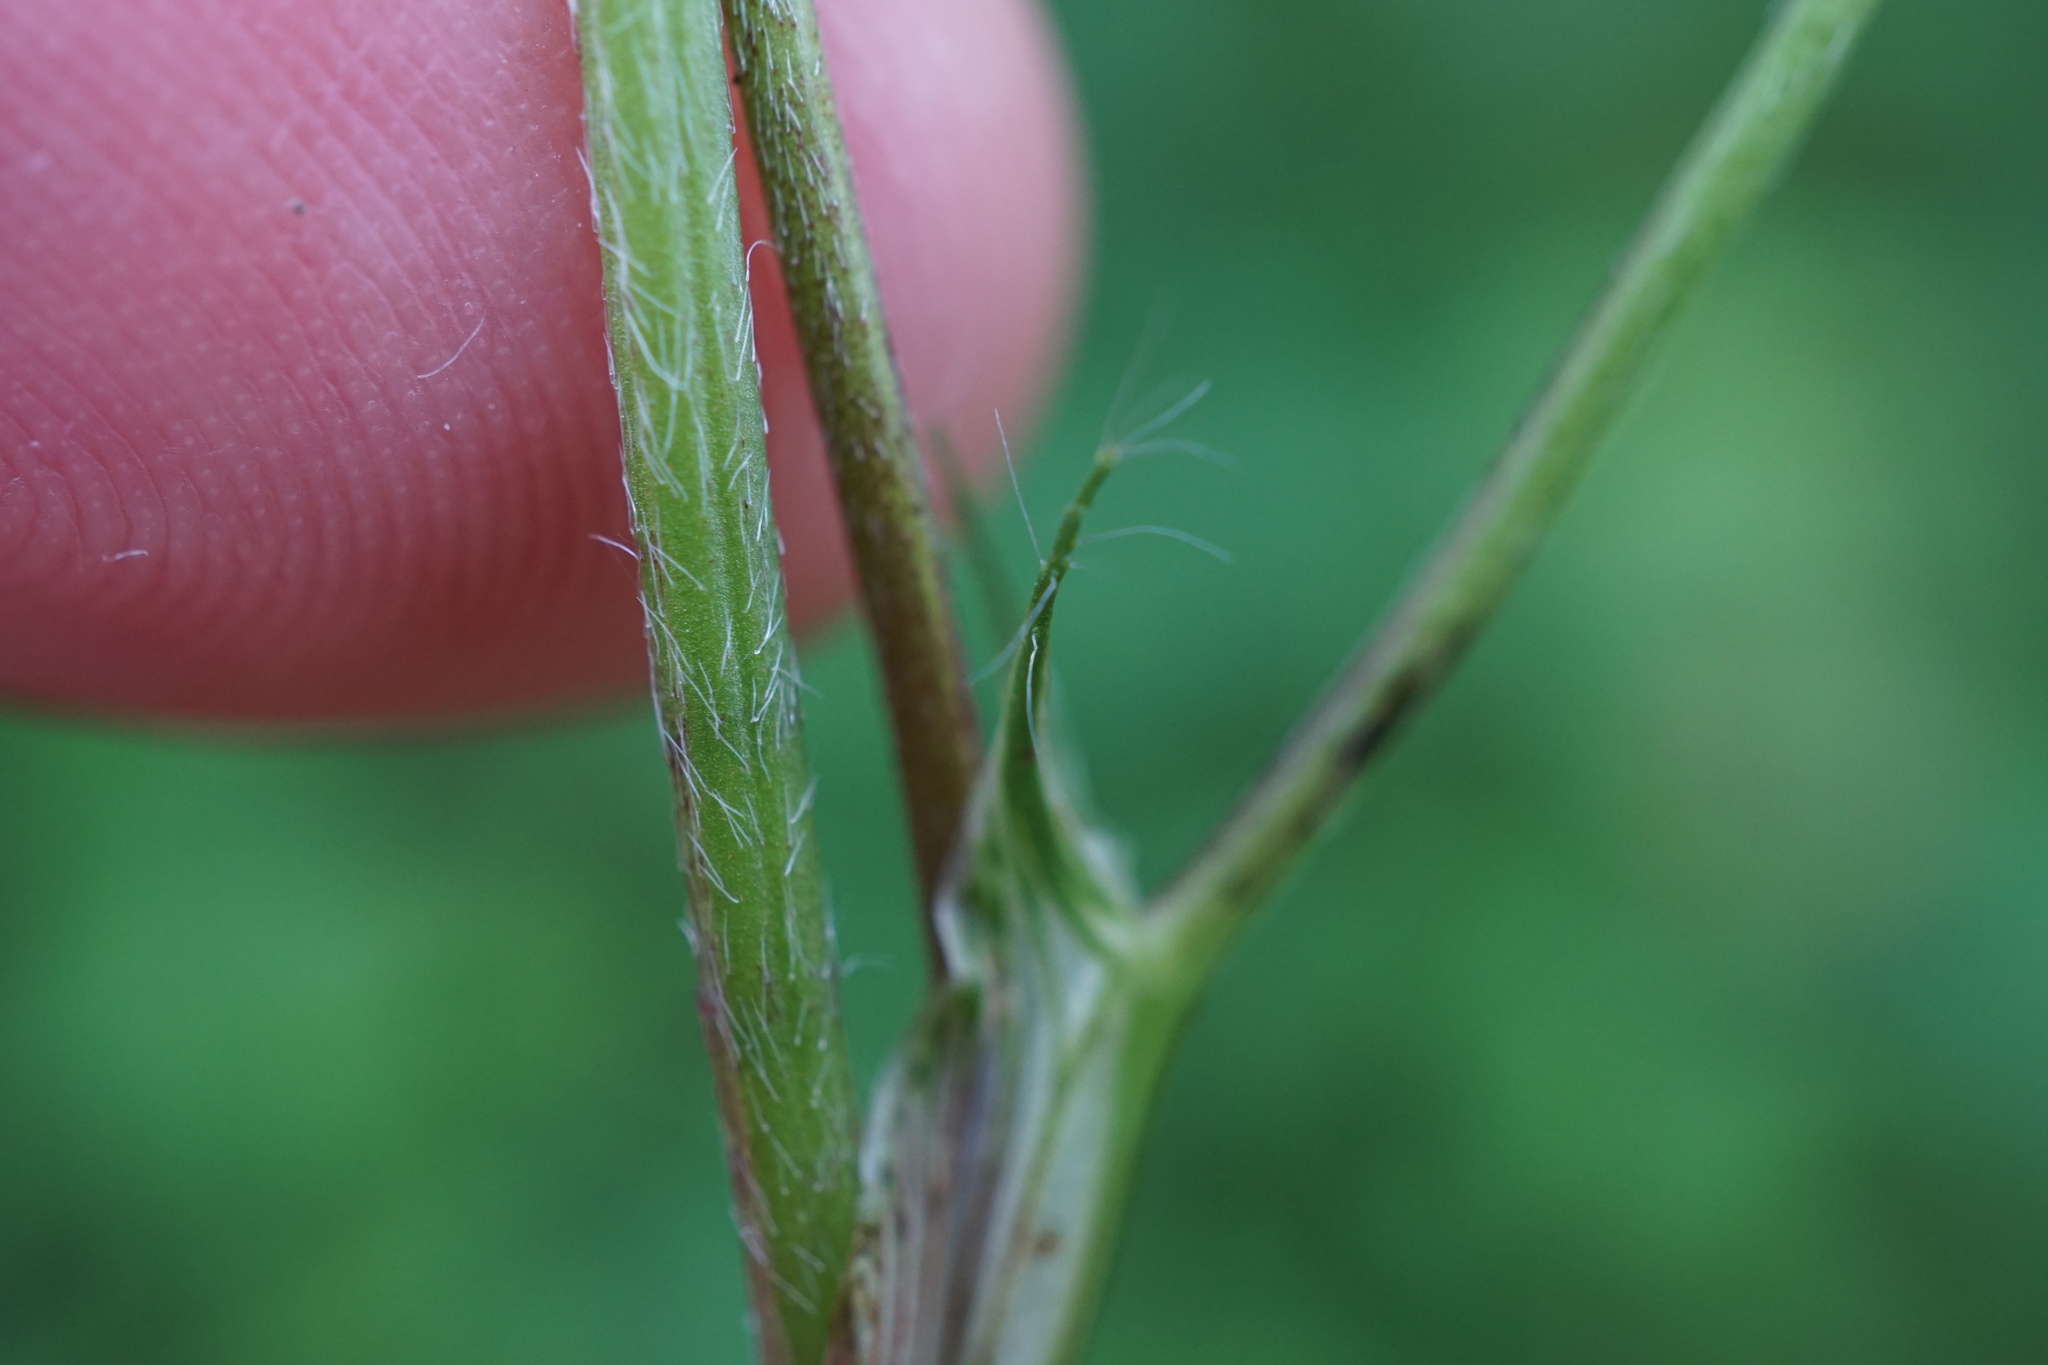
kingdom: Plantae
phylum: Tracheophyta
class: Magnoliopsida
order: Fabales
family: Fabaceae
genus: Trifolium
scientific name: Trifolium medium
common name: Zigzag clover
